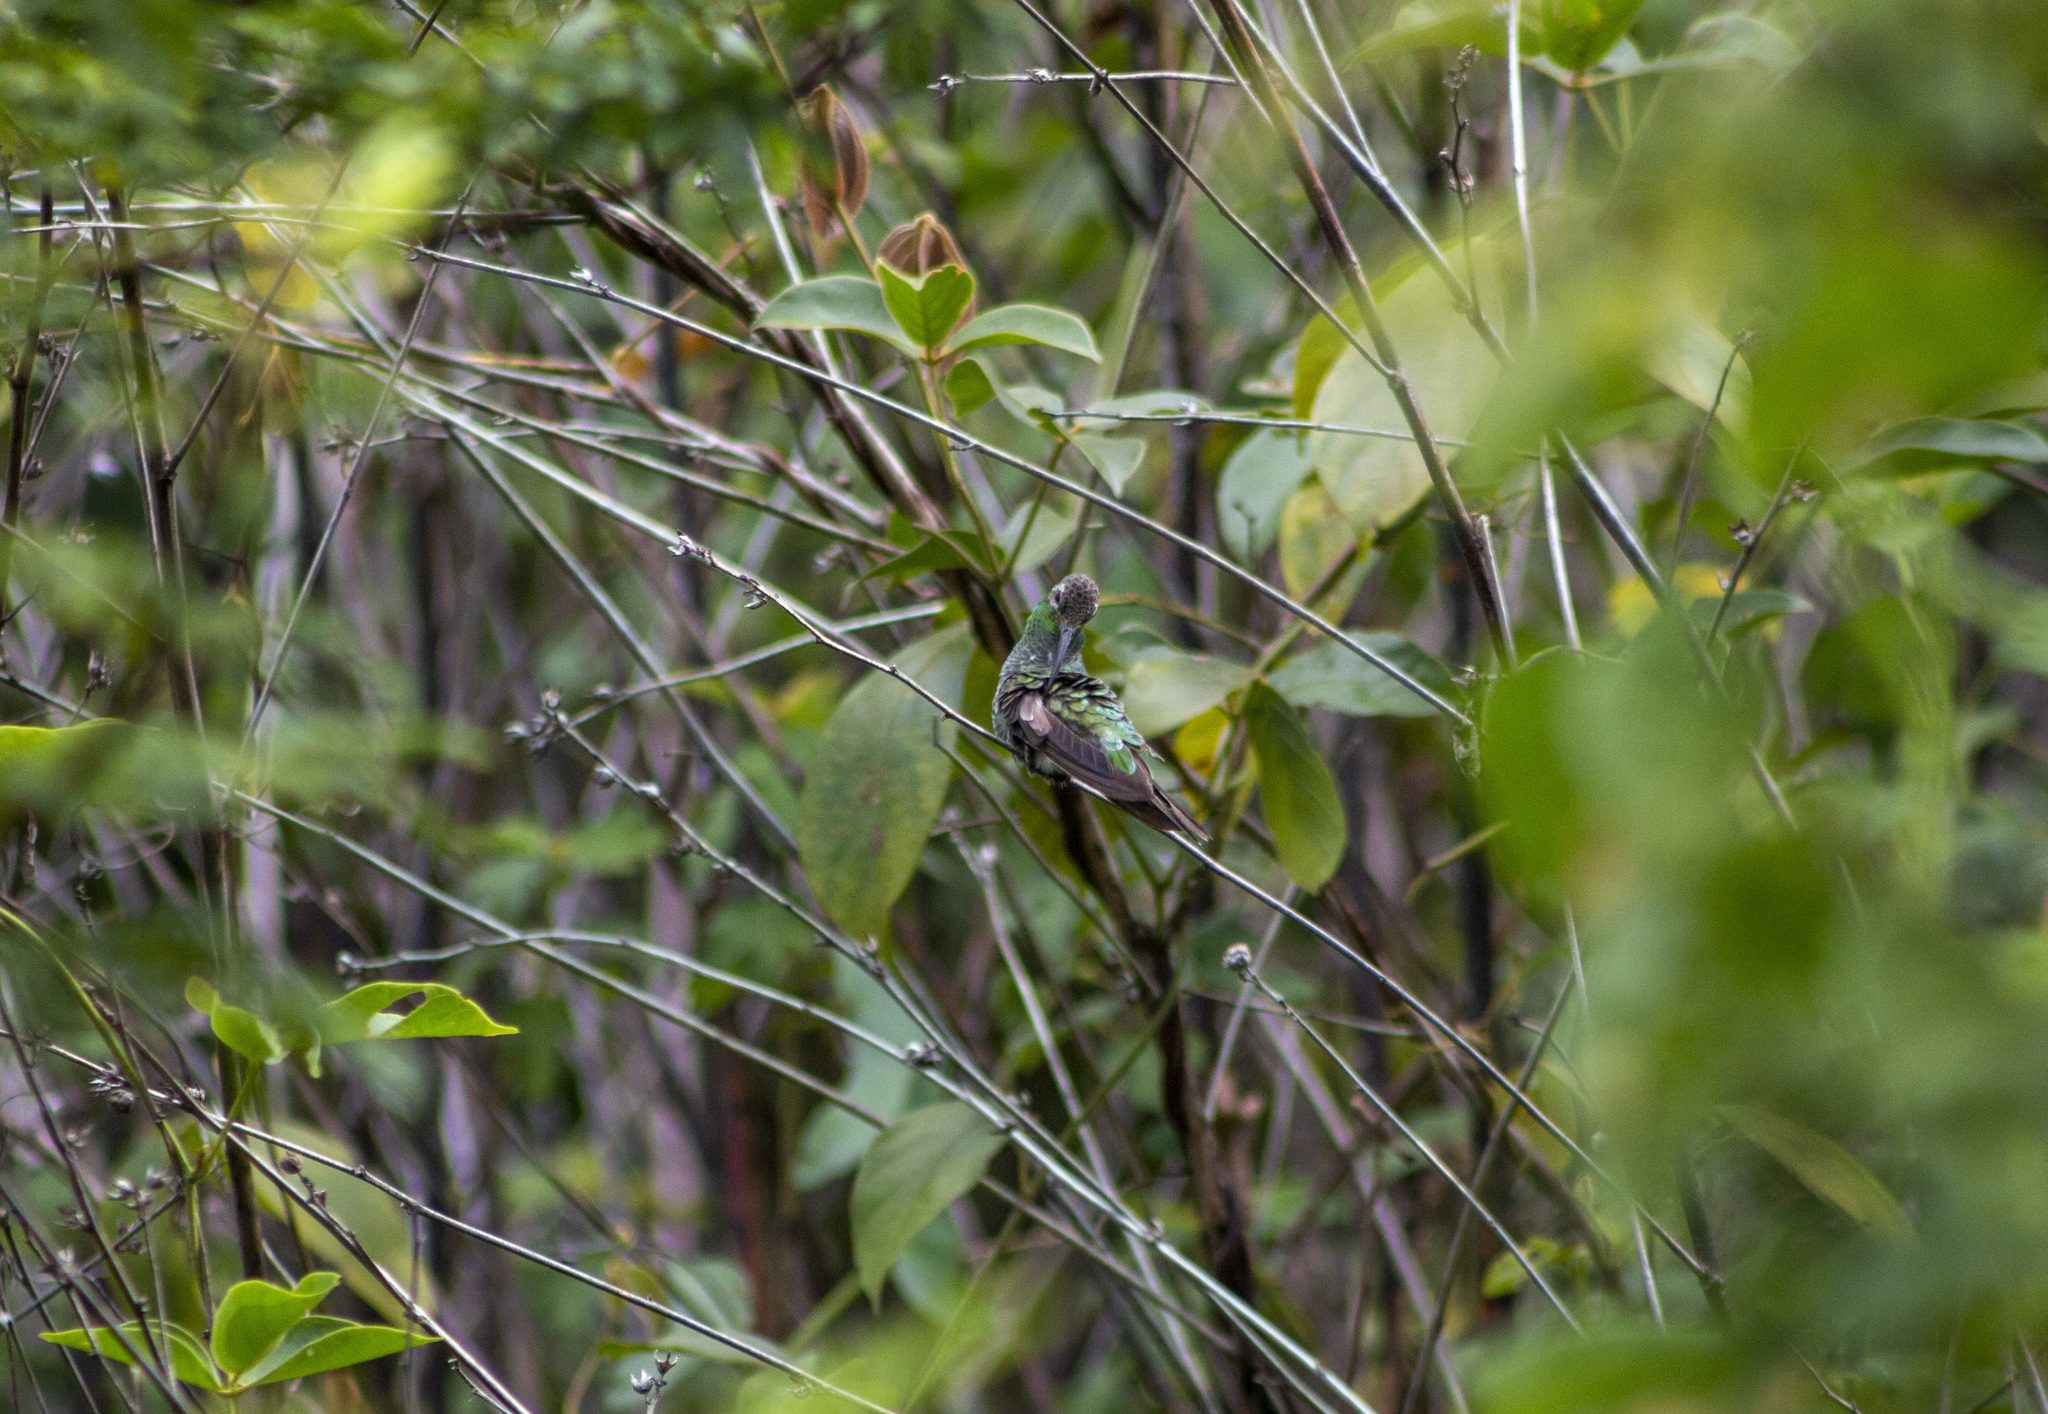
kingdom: Animalia
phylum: Chordata
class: Aves
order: Apodiformes
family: Trochilidae
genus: Polytmus
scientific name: Polytmus guainumbi
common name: White-tailed goldenthroat
